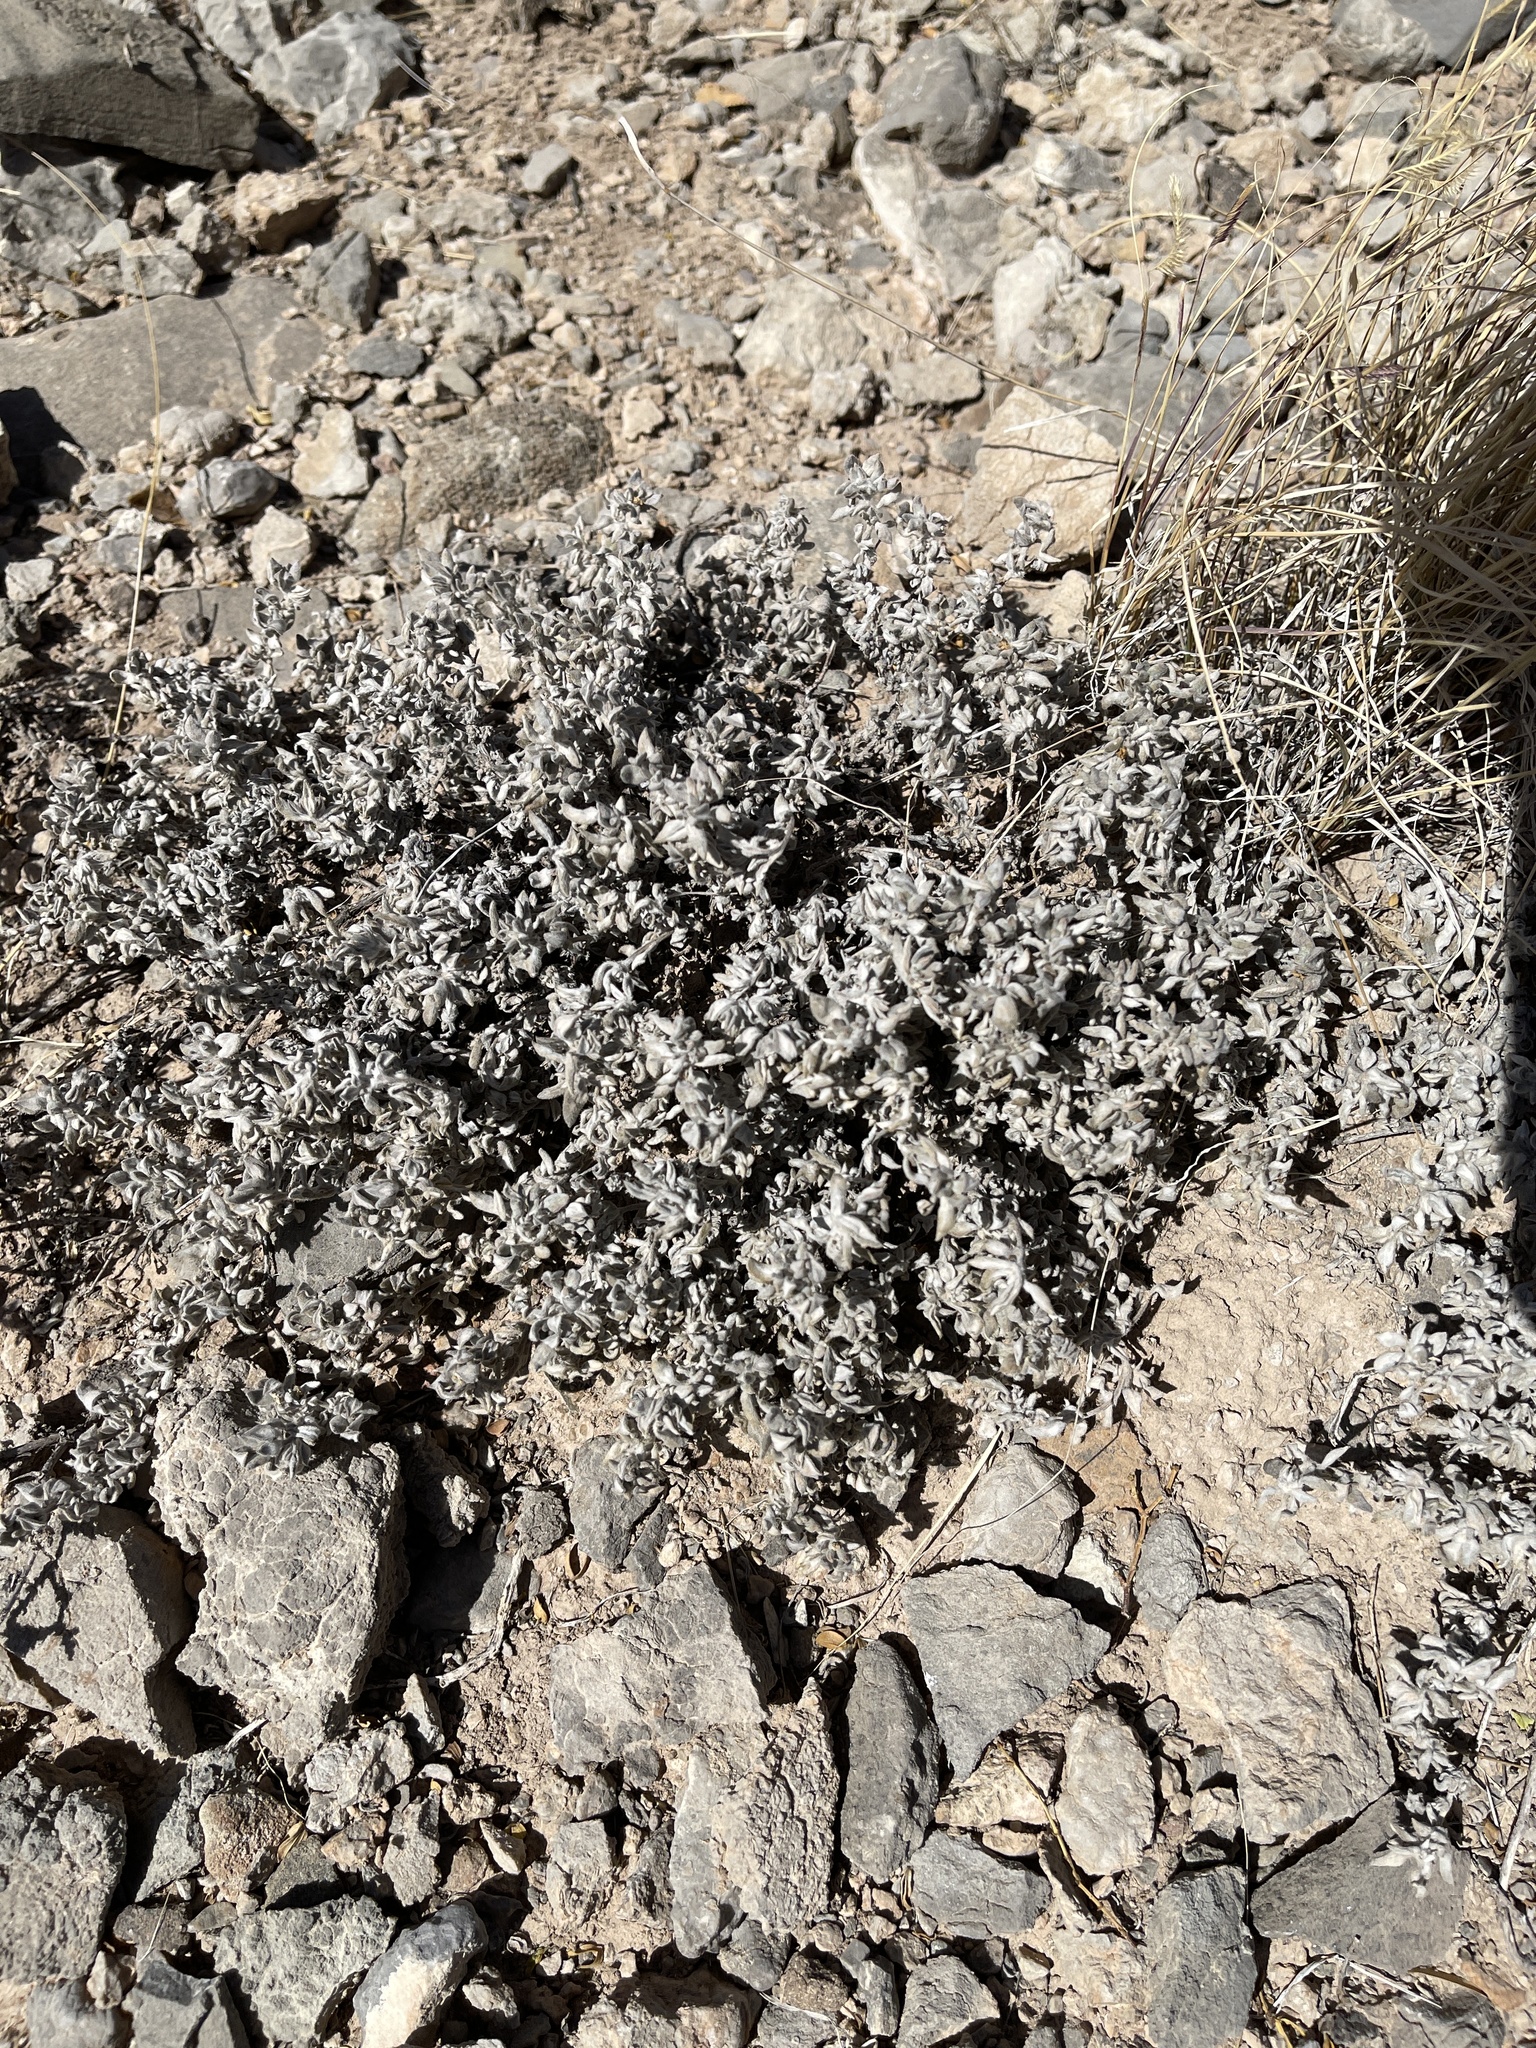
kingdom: Plantae
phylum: Tracheophyta
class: Magnoliopsida
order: Boraginales
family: Ehretiaceae
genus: Tiquilia
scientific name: Tiquilia canescens
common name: Hairy tiquilia
